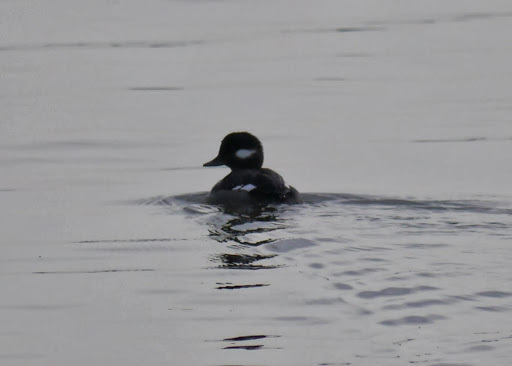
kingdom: Animalia
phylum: Chordata
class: Aves
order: Anseriformes
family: Anatidae
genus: Bucephala
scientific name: Bucephala albeola
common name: Bufflehead
